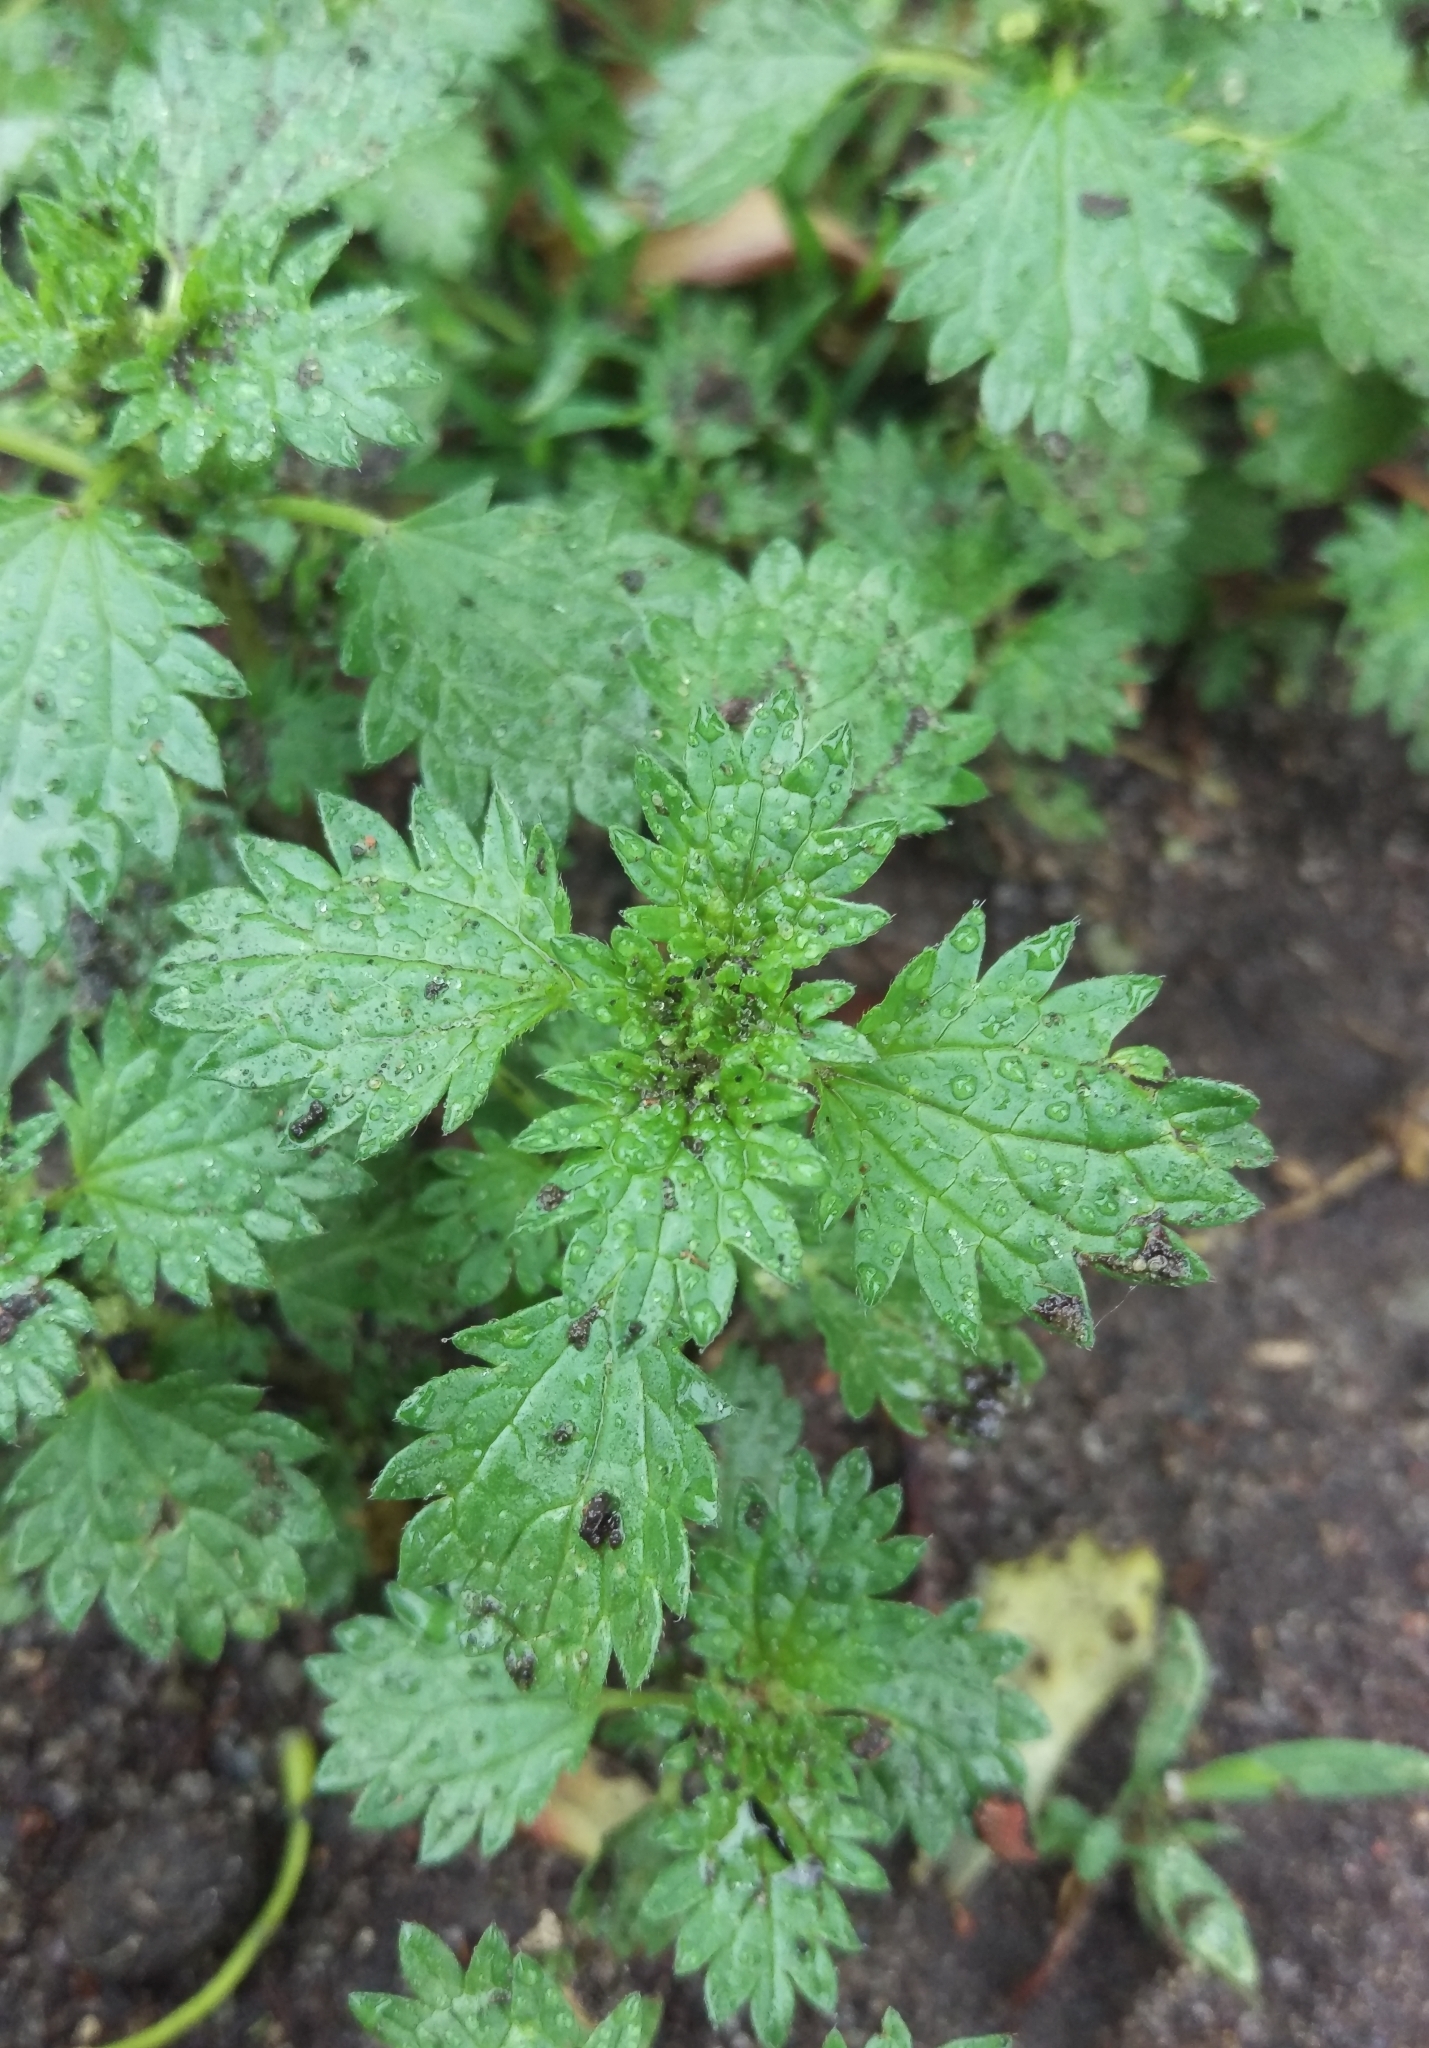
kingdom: Plantae
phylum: Tracheophyta
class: Magnoliopsida
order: Rosales
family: Urticaceae
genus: Urtica
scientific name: Urtica urens
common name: Dwarf nettle
